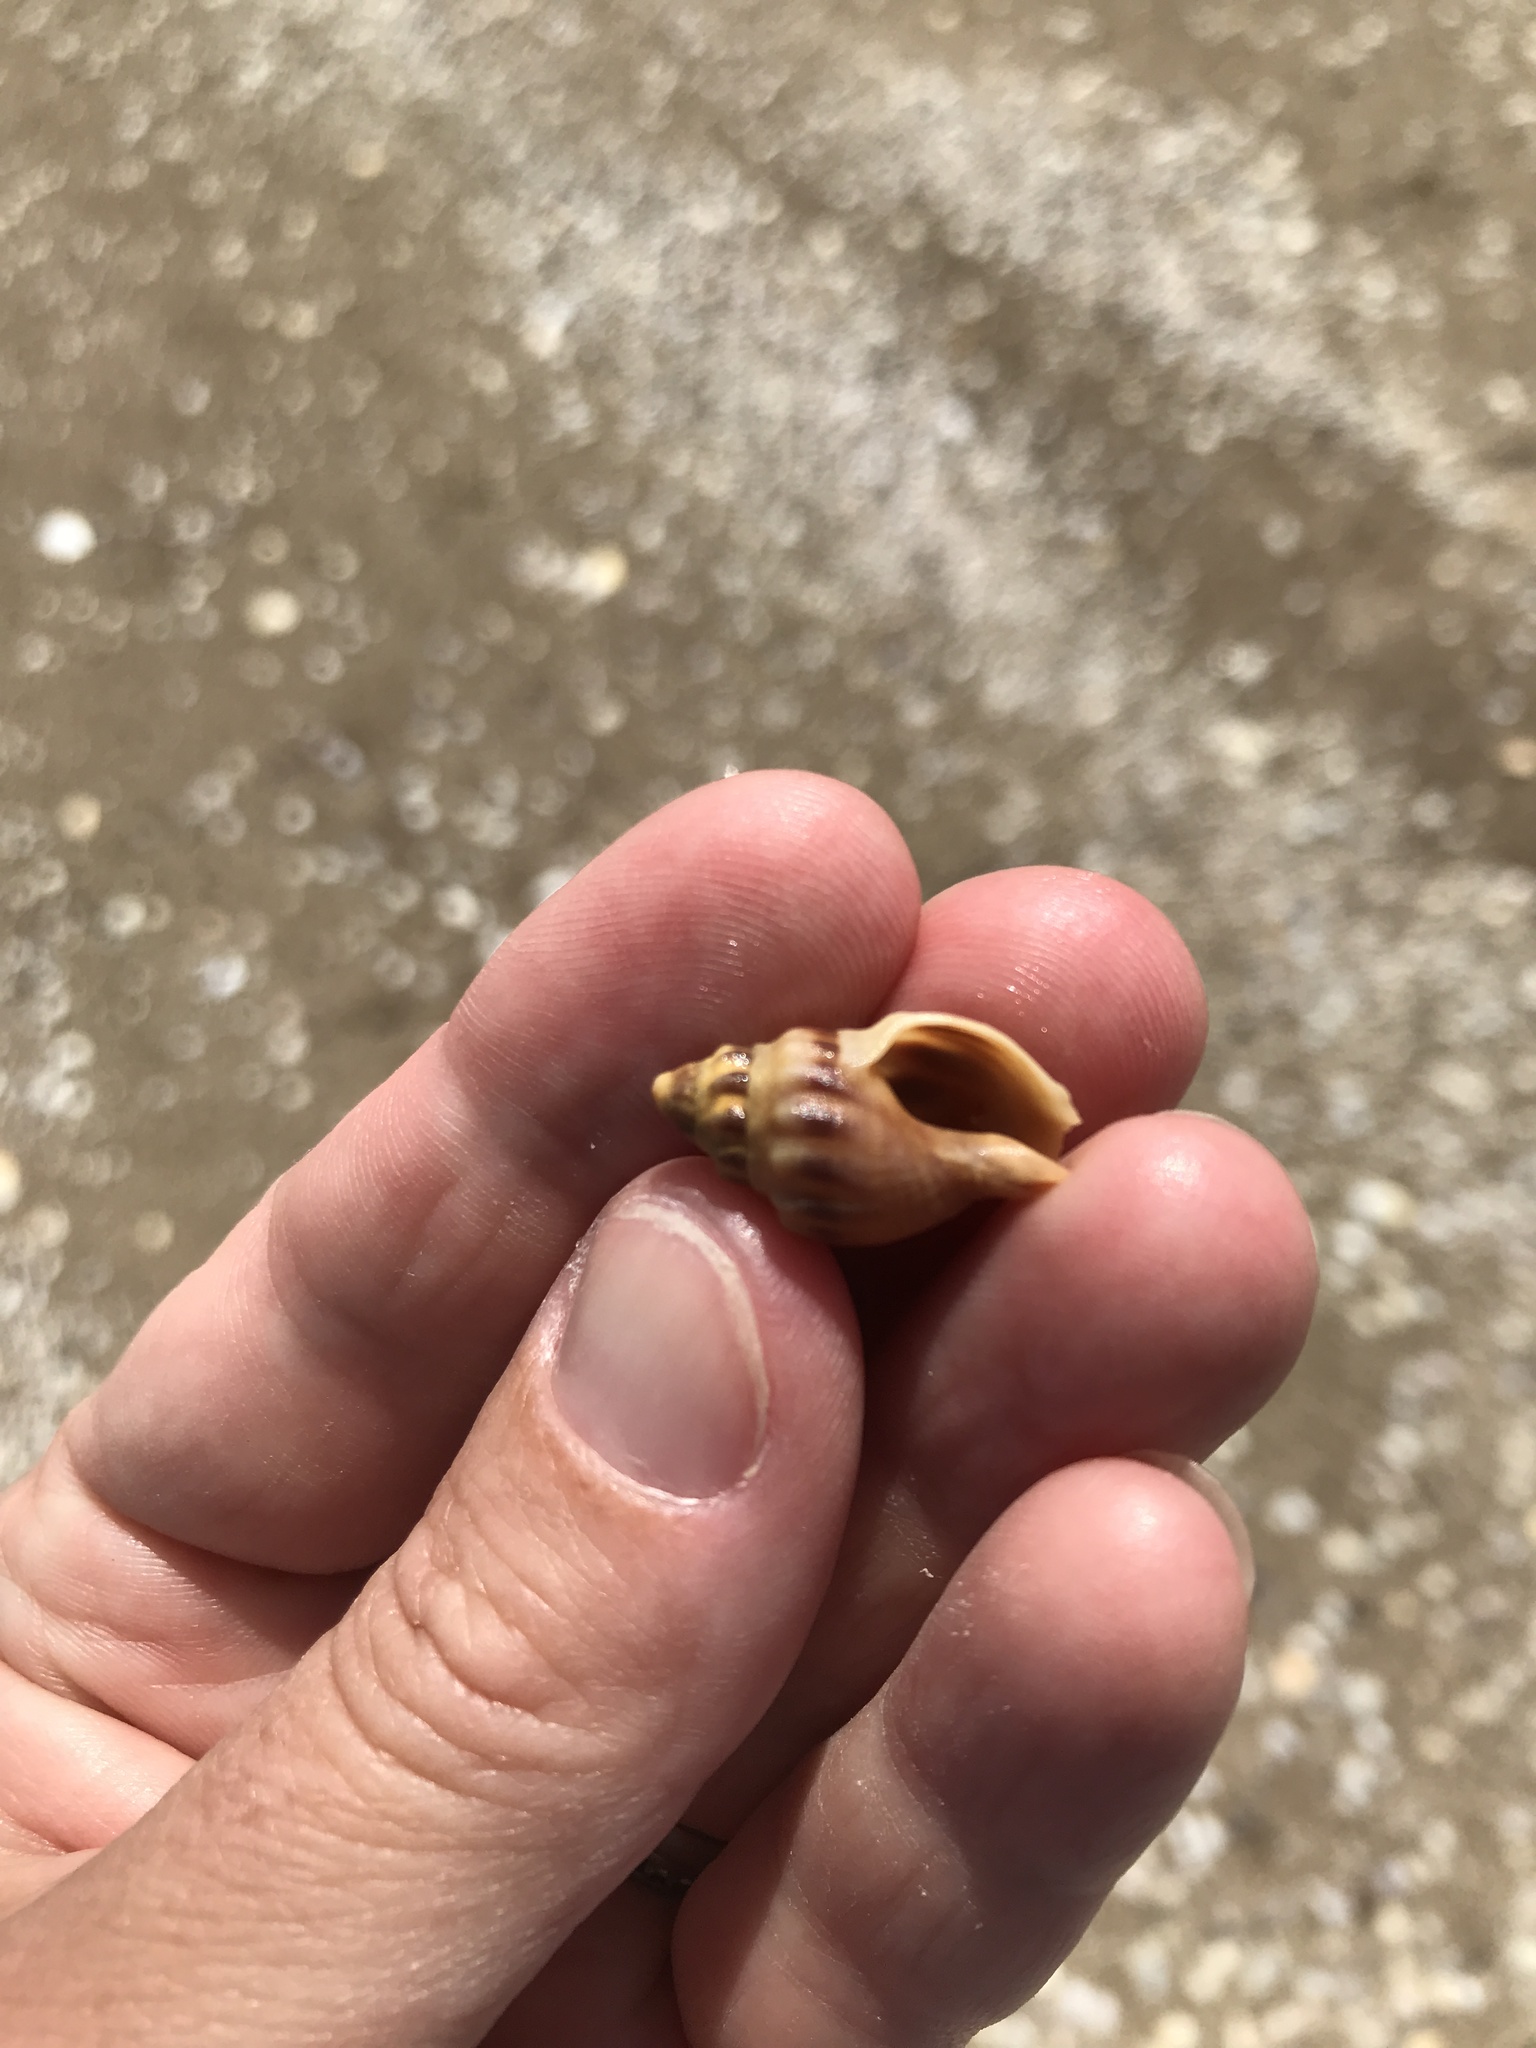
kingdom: Animalia
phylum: Mollusca
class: Gastropoda
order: Neogastropoda
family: Cominellidae
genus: Cominella
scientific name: Cominella glandiformis
